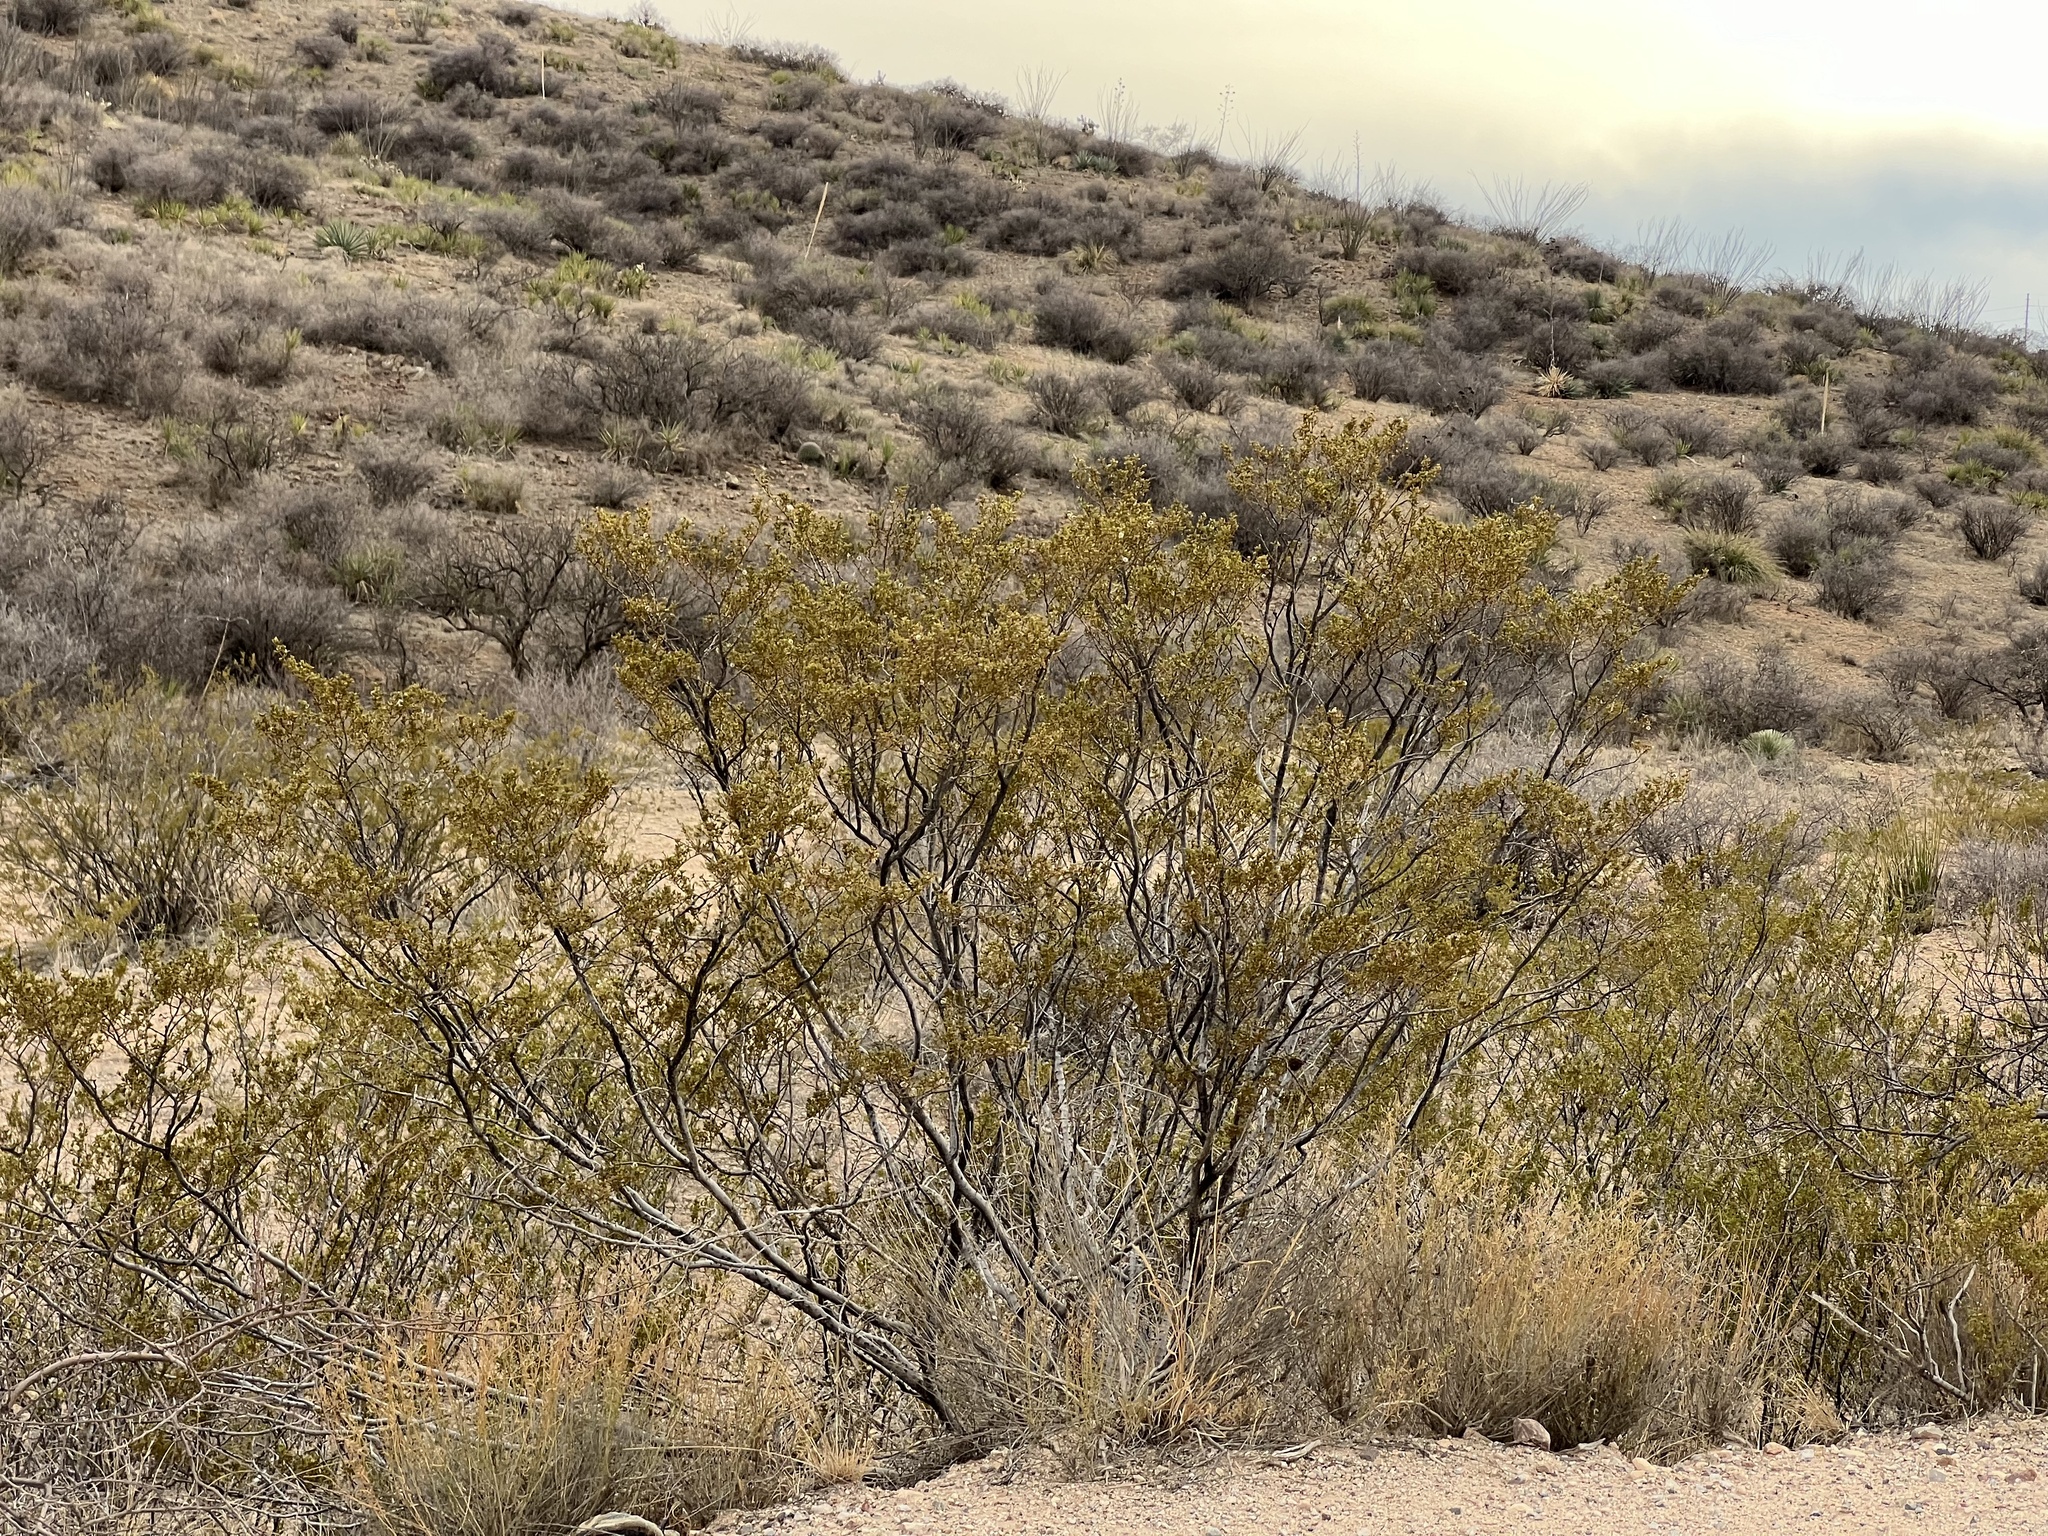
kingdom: Plantae
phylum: Tracheophyta
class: Magnoliopsida
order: Zygophyllales
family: Zygophyllaceae
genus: Larrea
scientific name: Larrea tridentata
